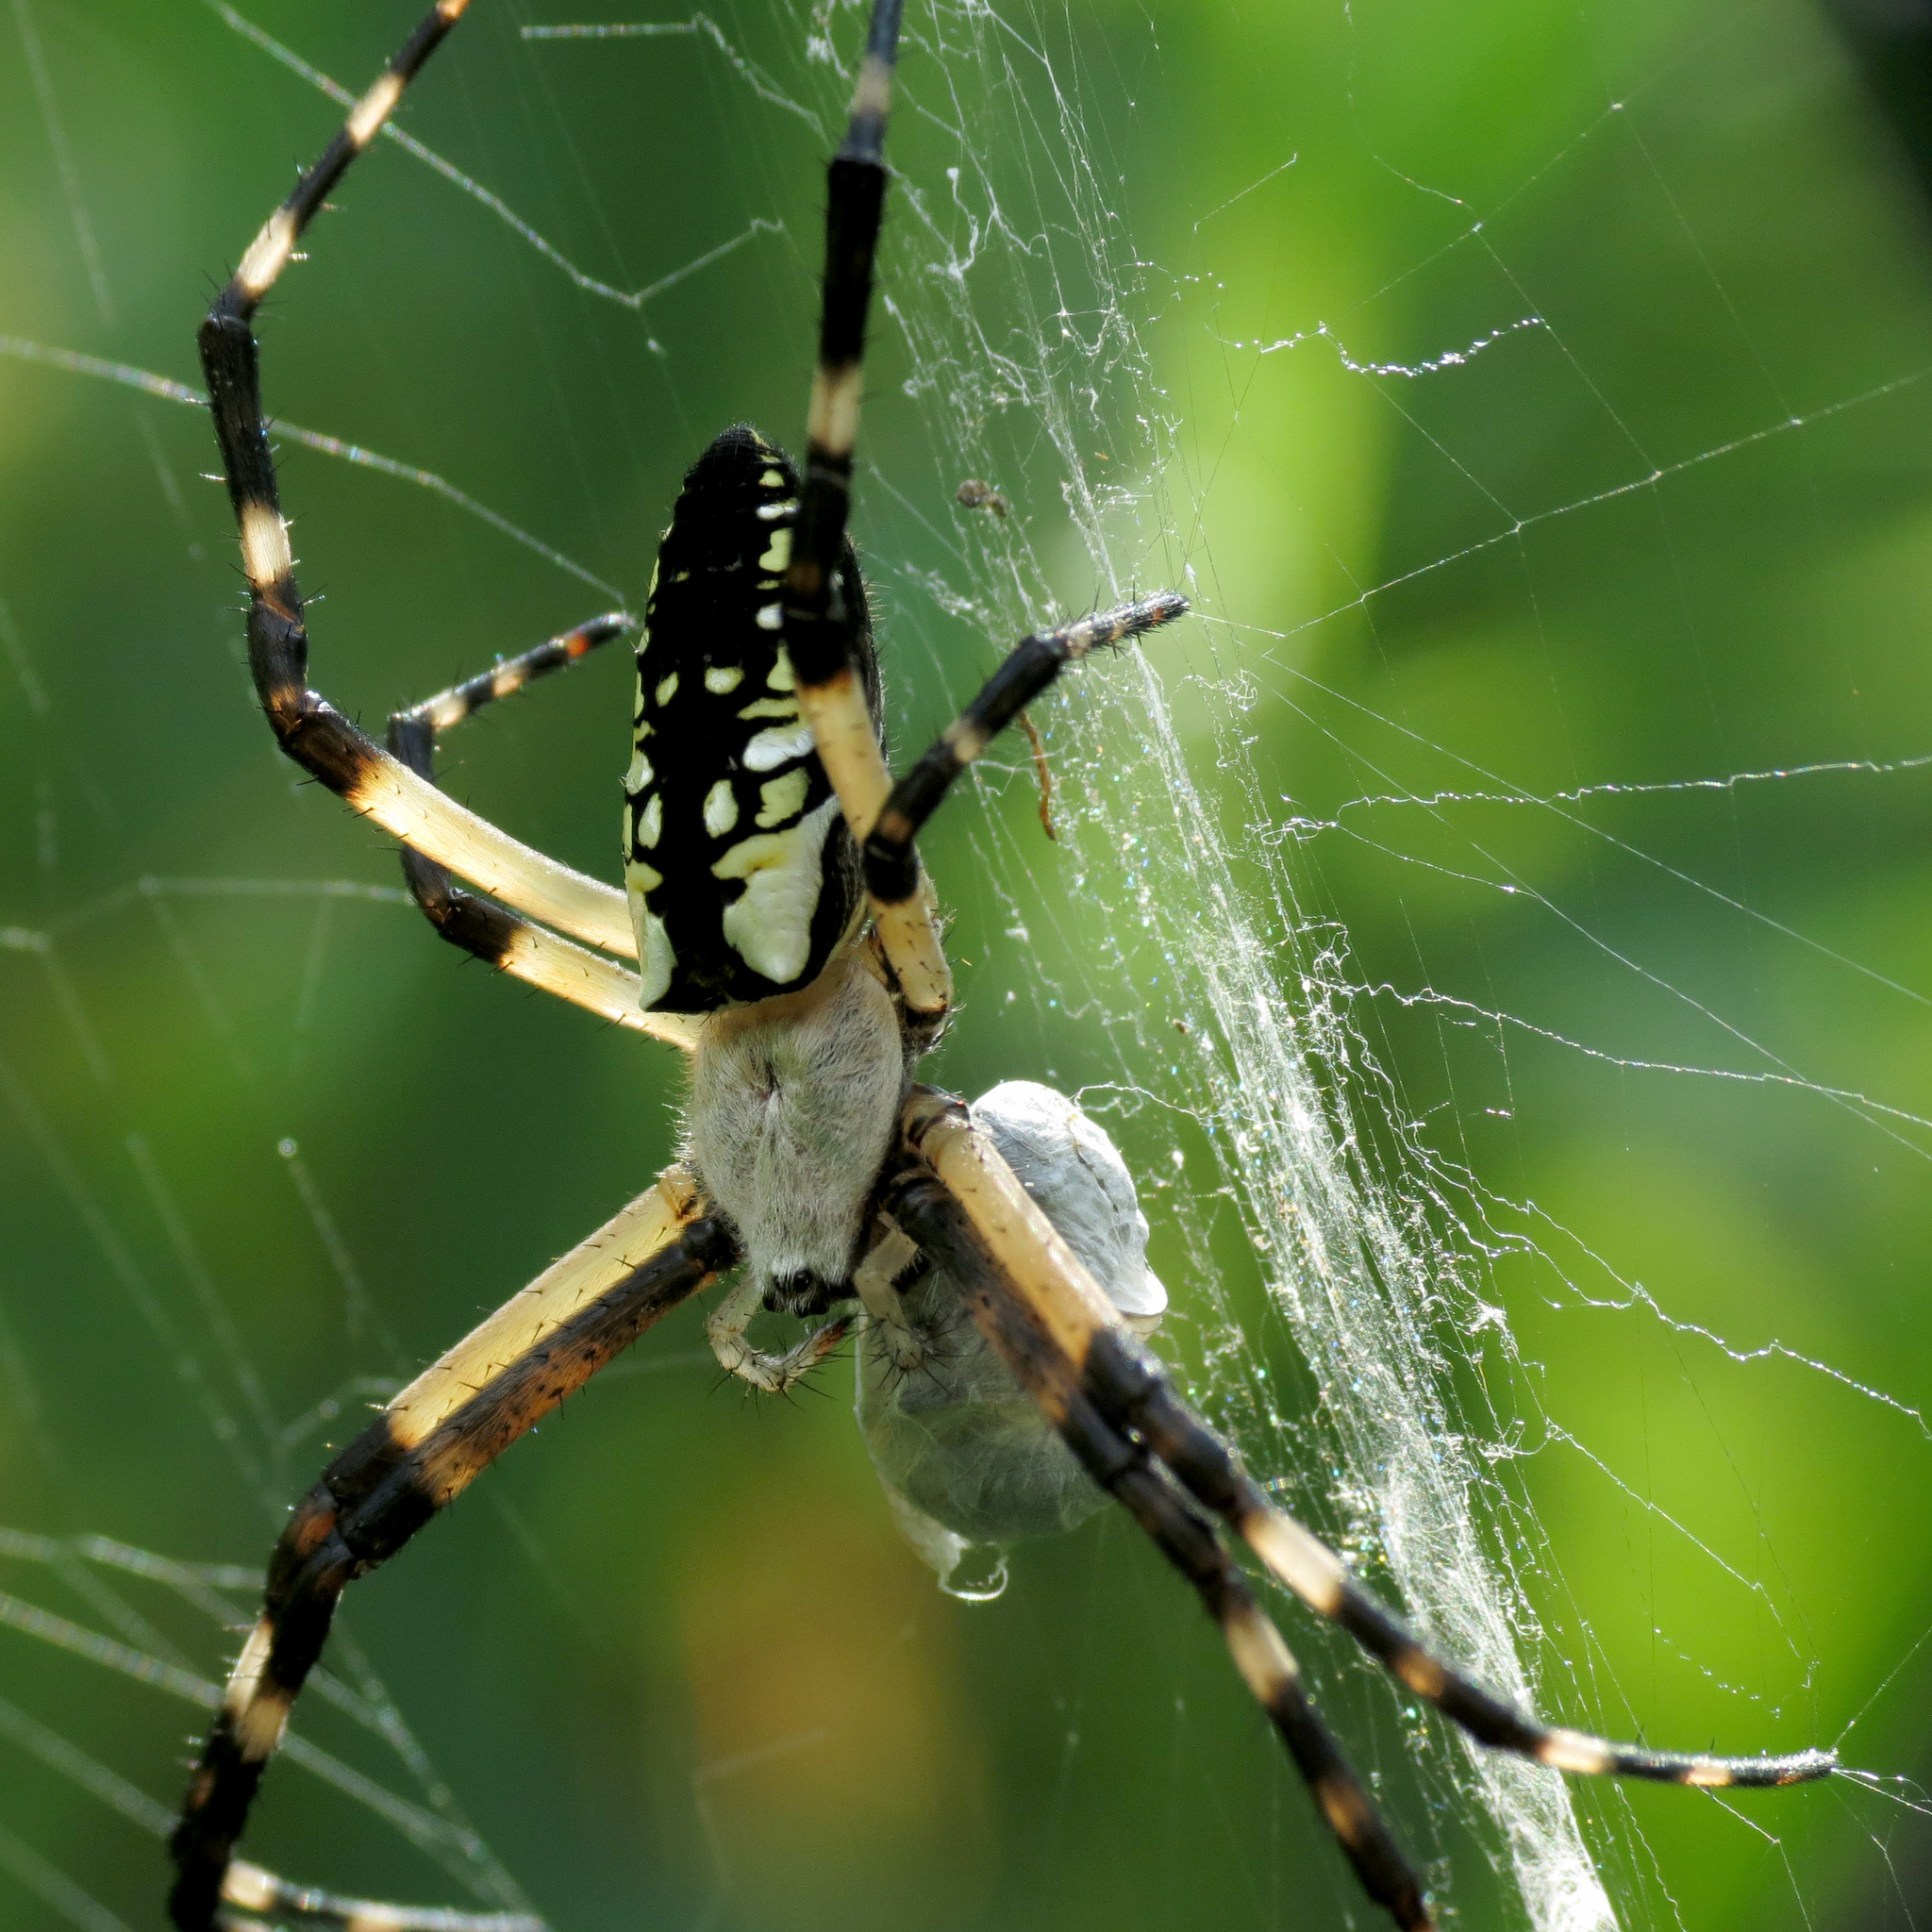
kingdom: Animalia
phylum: Arthropoda
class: Arachnida
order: Araneae
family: Araneidae
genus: Argiope
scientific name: Argiope aurantia
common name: Orb weavers
